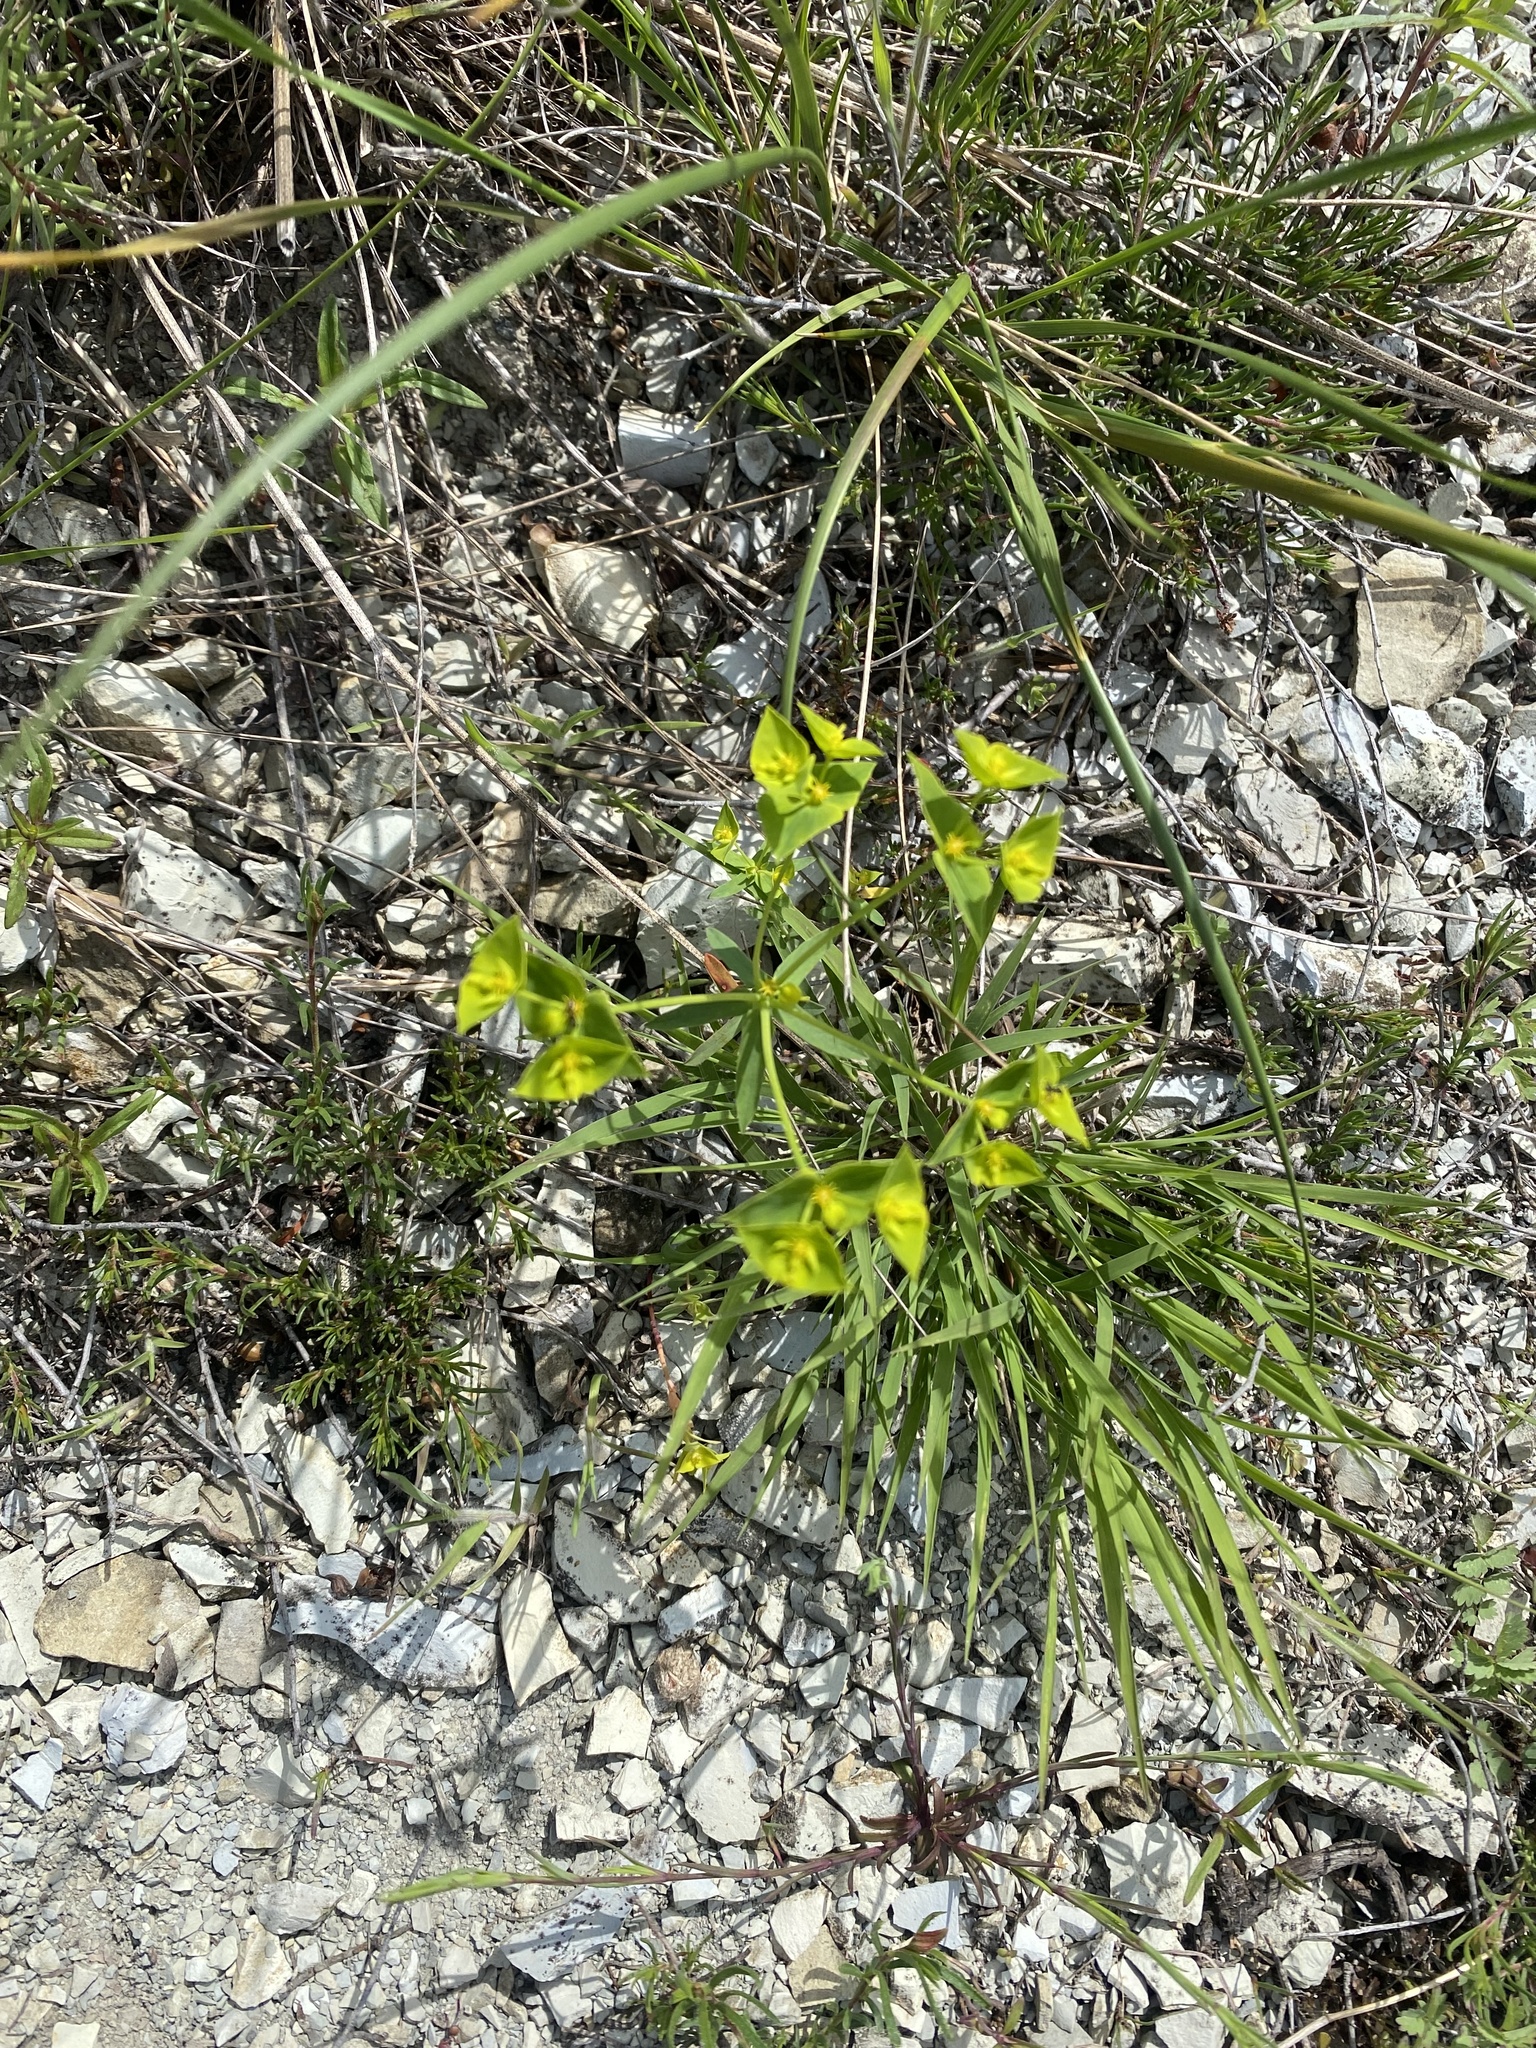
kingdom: Plantae
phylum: Tracheophyta
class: Magnoliopsida
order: Malpighiales
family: Euphorbiaceae
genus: Euphorbia
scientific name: Euphorbia
